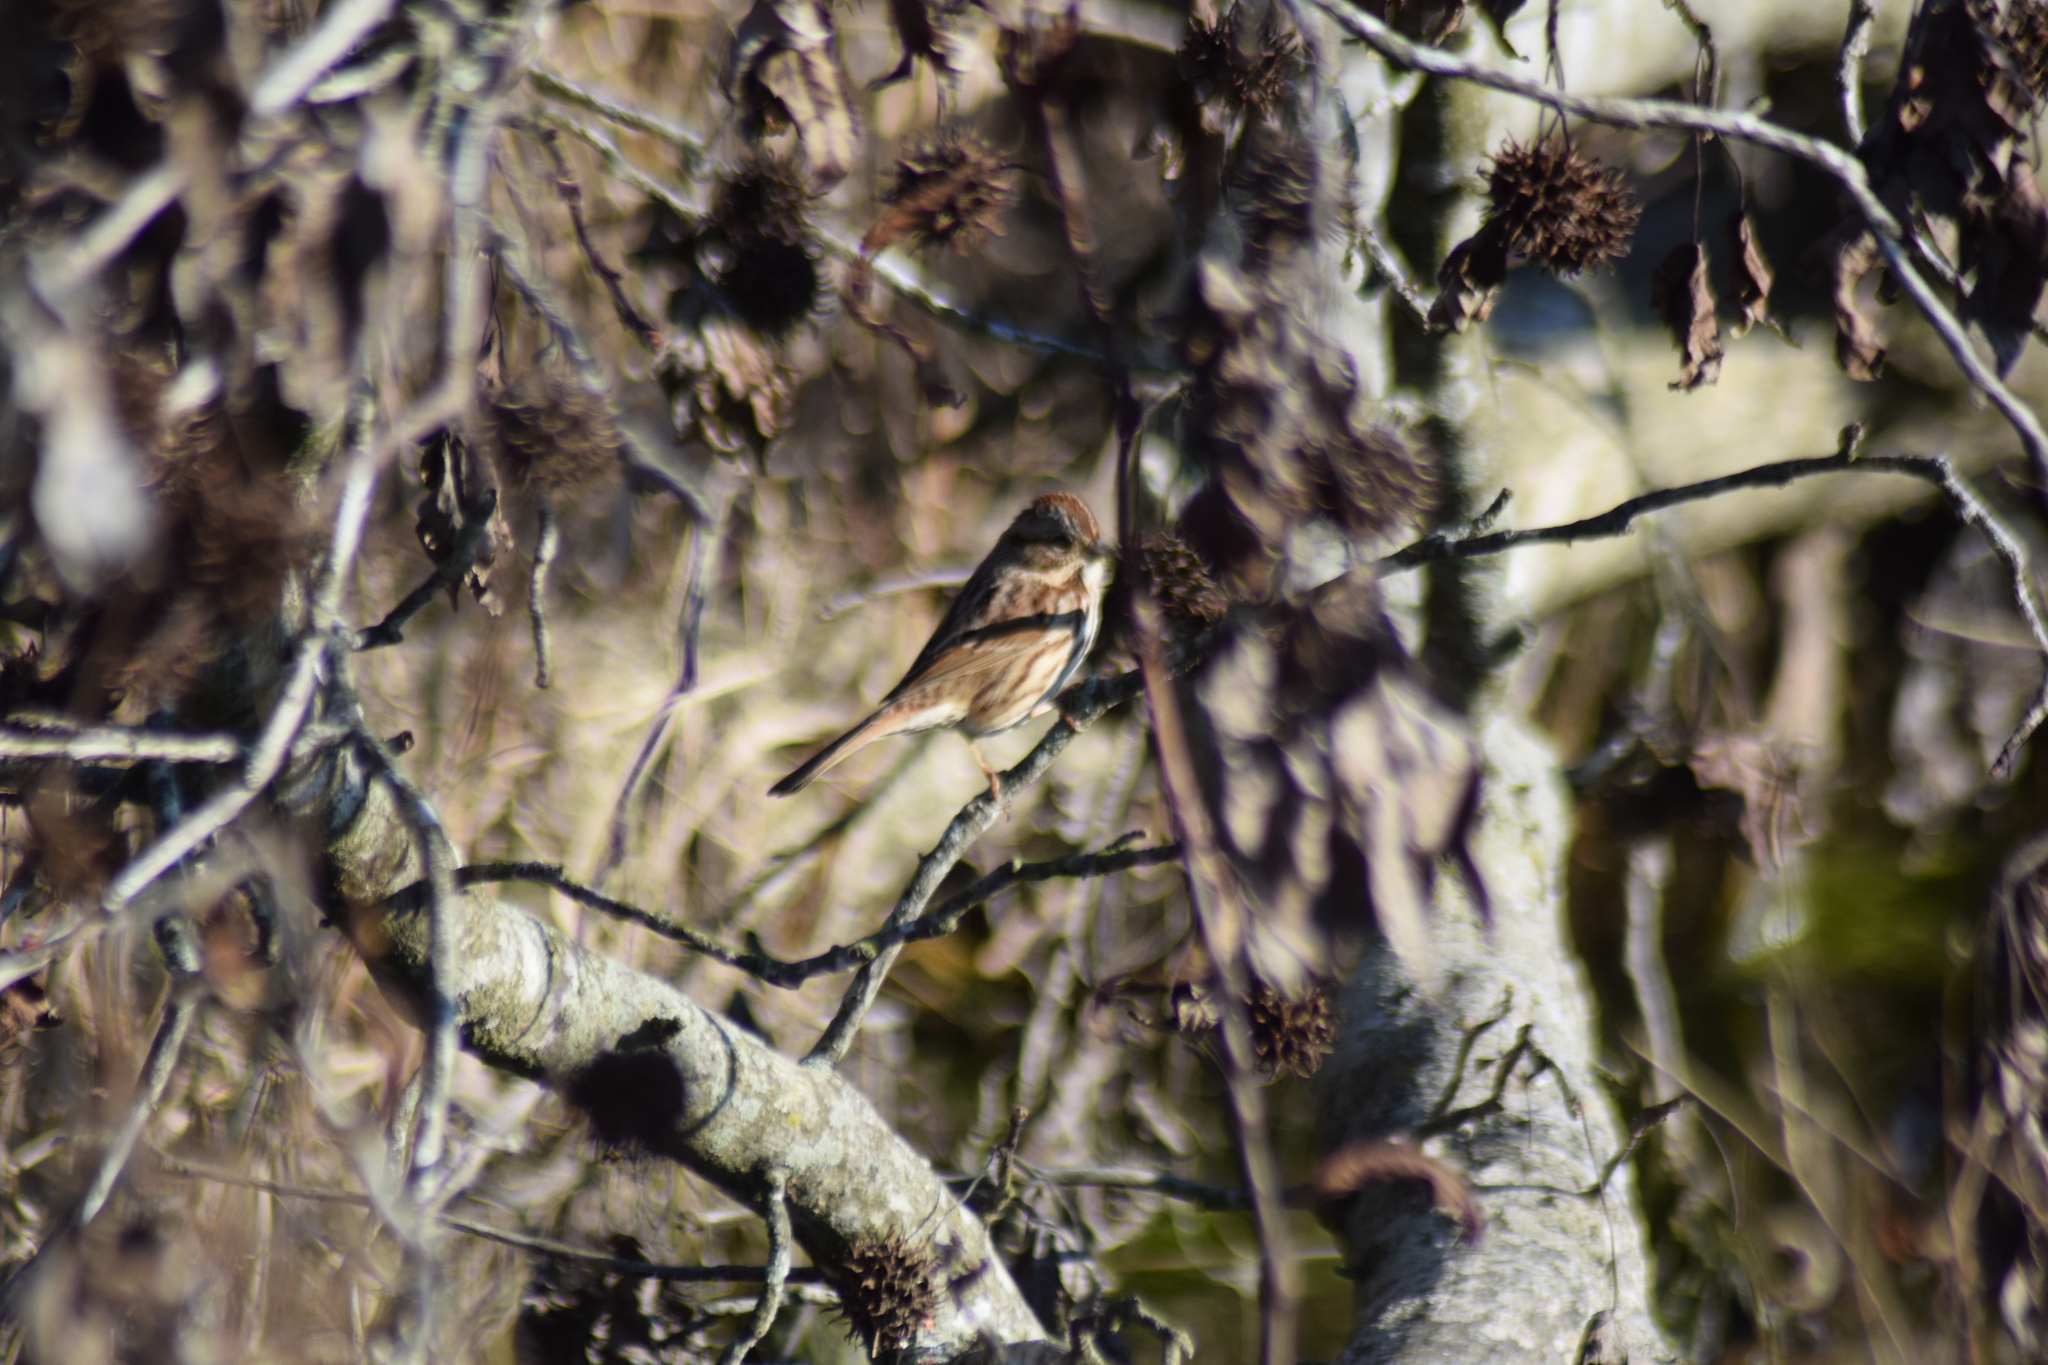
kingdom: Animalia
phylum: Chordata
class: Aves
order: Passeriformes
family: Passerellidae
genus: Melospiza
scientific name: Melospiza melodia
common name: Song sparrow
